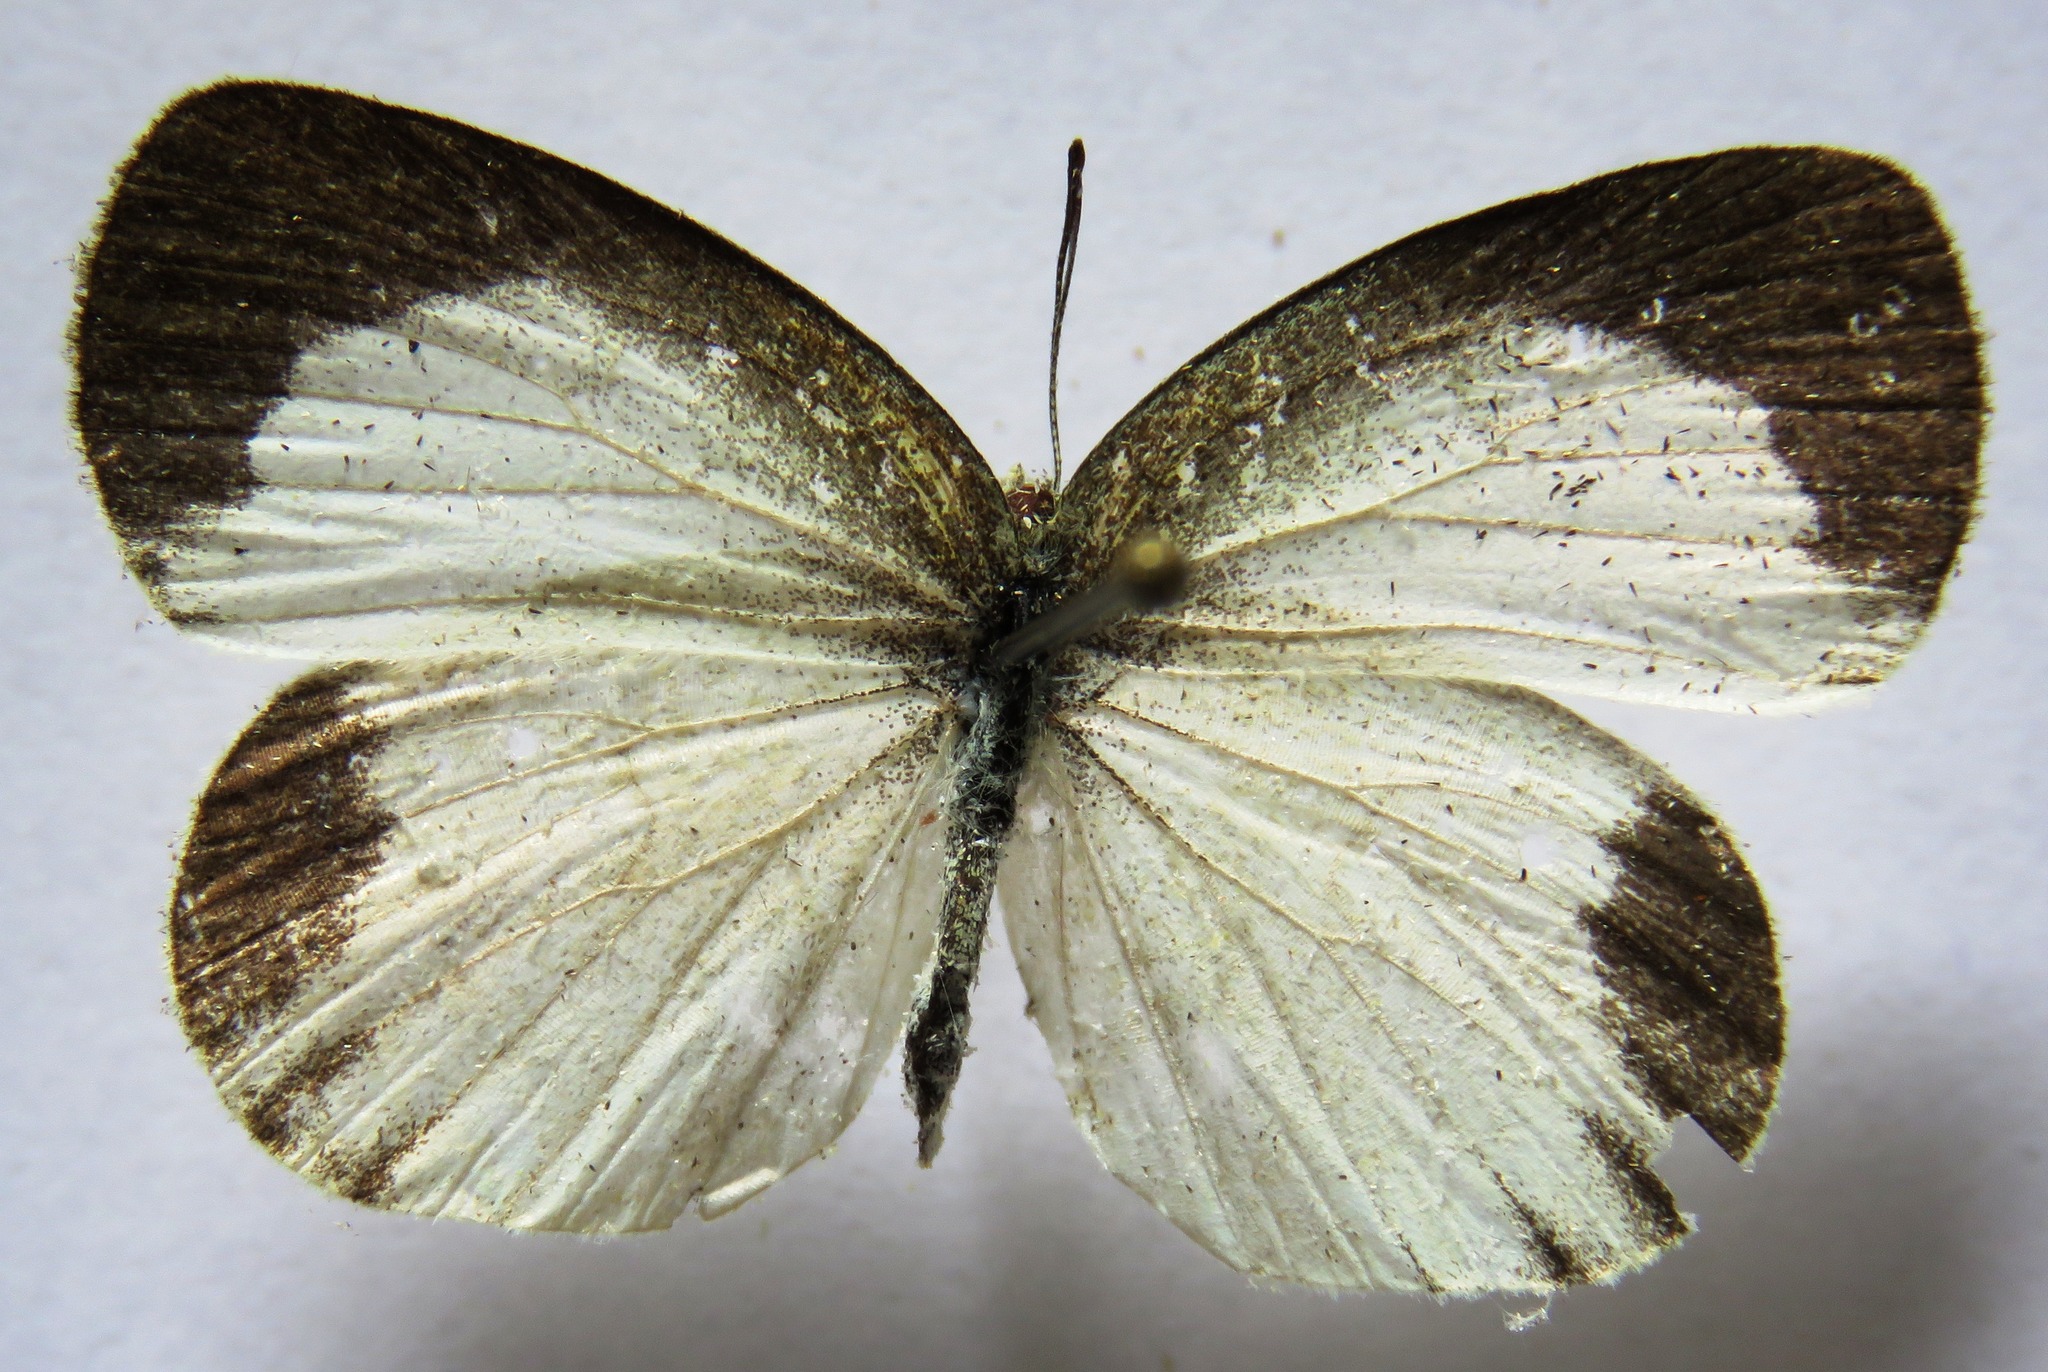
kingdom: Animalia
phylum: Arthropoda
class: Insecta
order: Lepidoptera
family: Pieridae
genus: Eurema
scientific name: Eurema daira
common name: Barred sulphur
